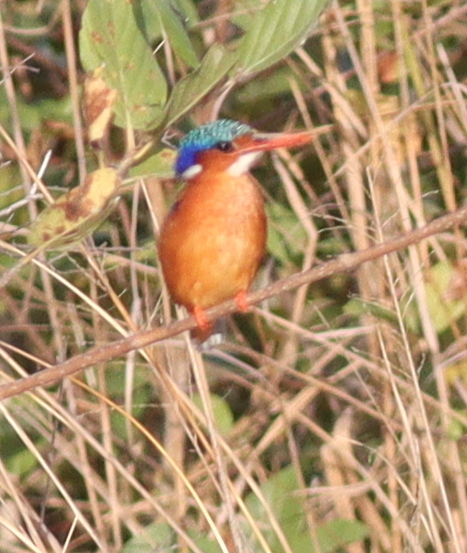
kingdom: Animalia
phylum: Chordata
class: Aves
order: Coraciiformes
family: Alcedinidae
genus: Corythornis
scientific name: Corythornis cristatus
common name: Malachite kingfisher
